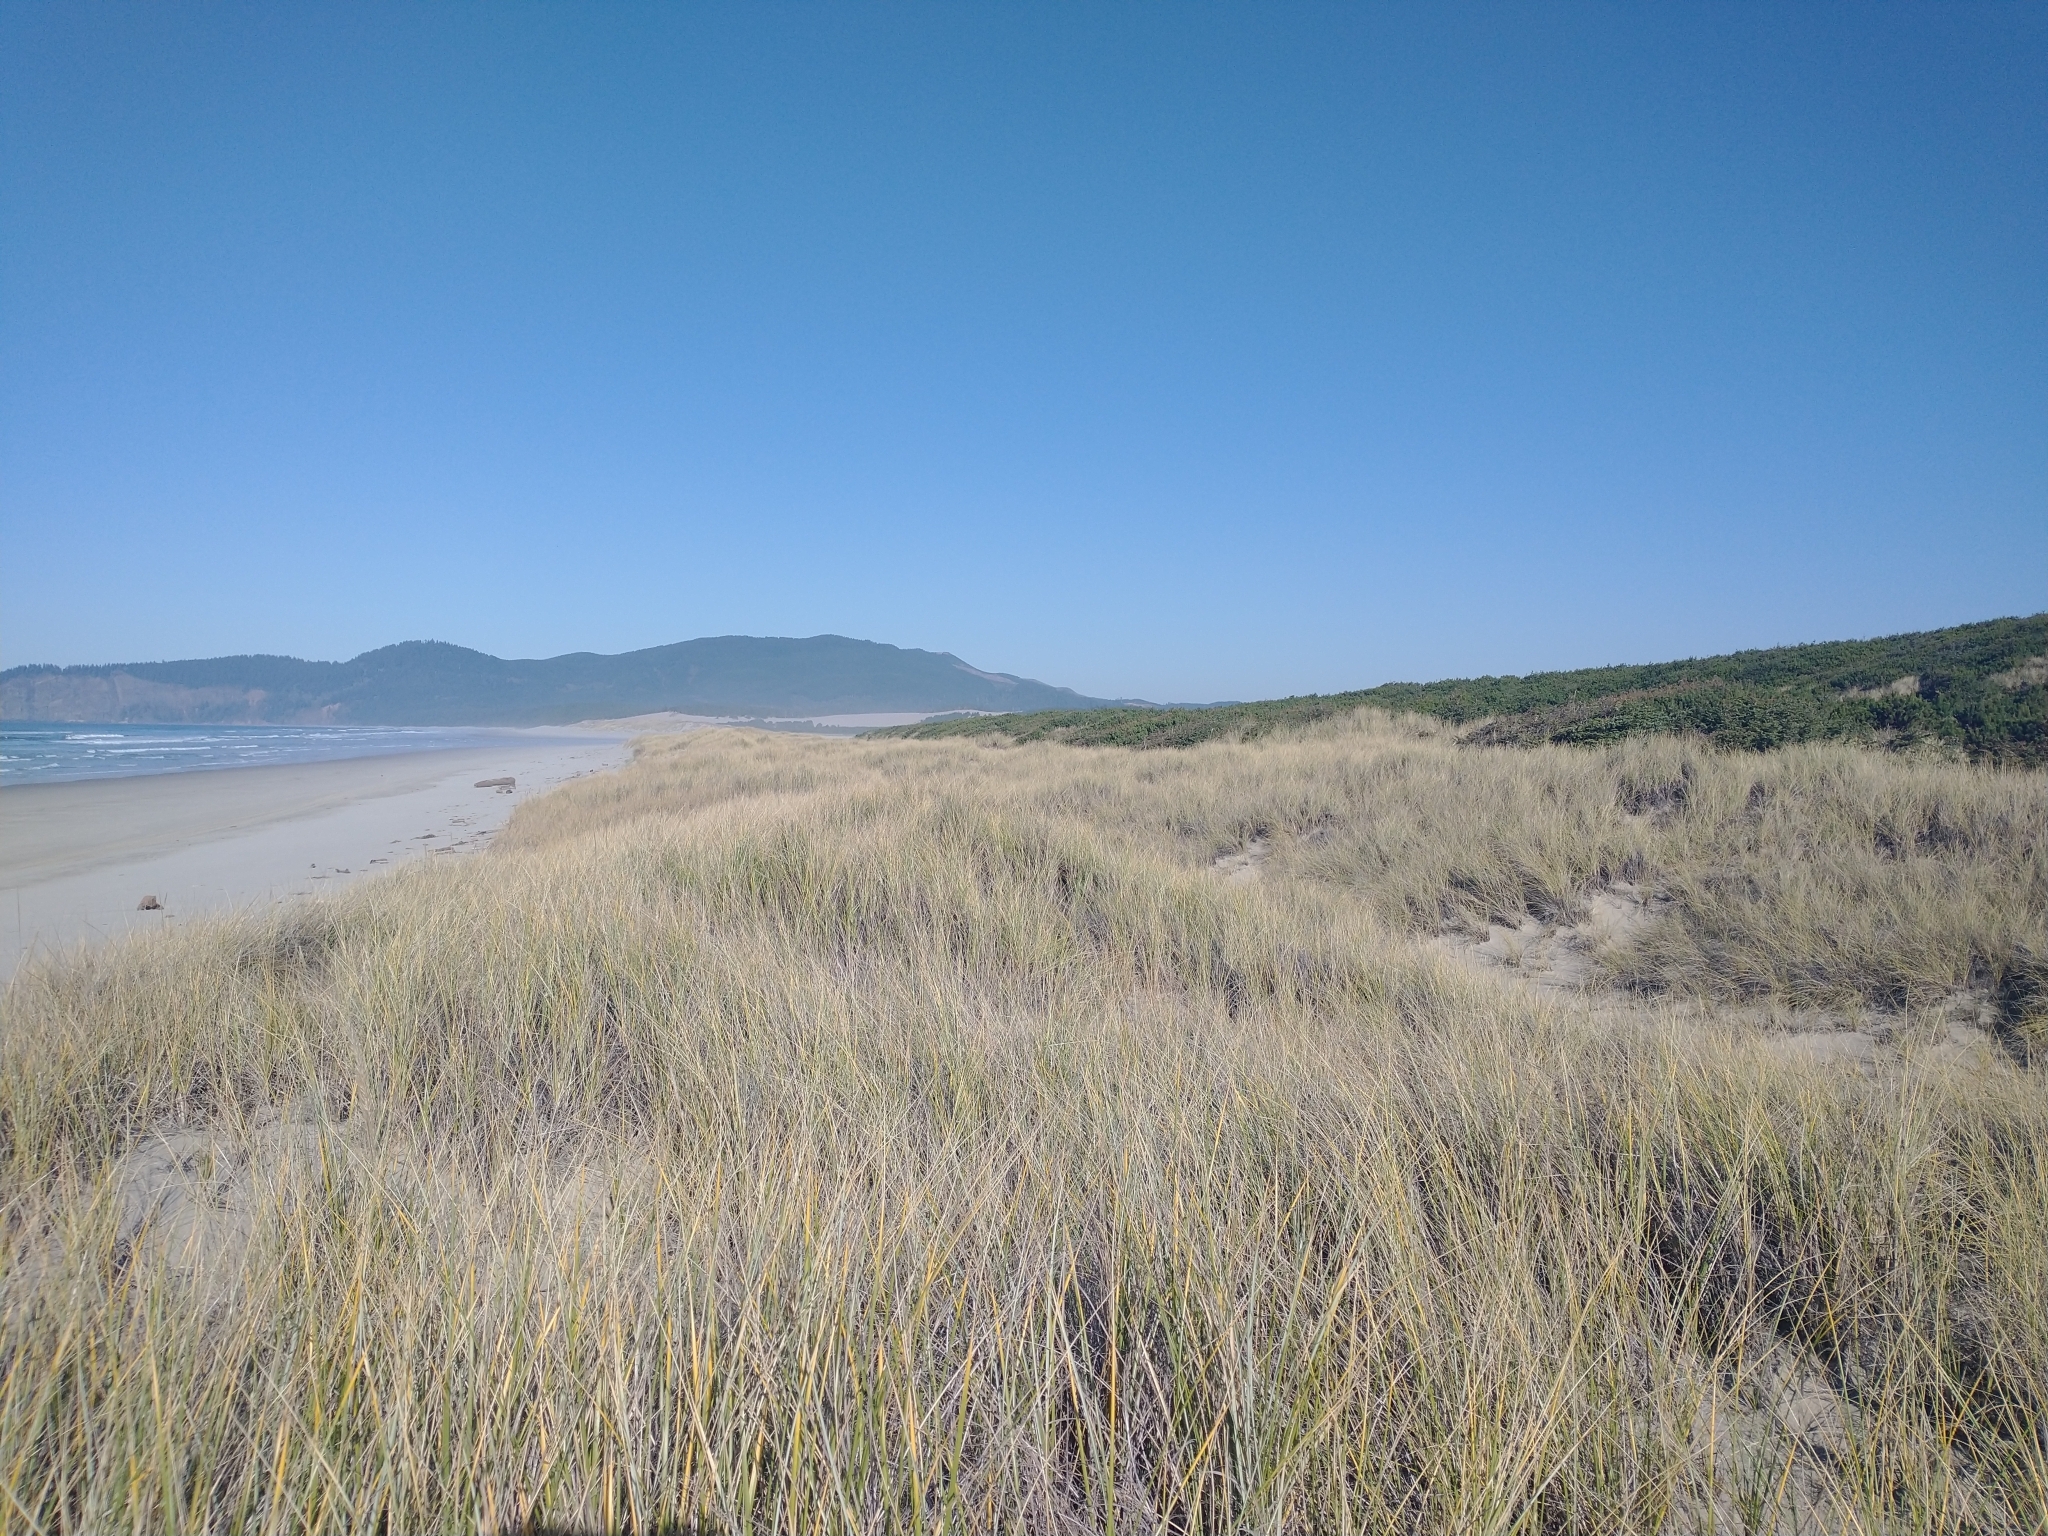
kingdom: Plantae
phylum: Tracheophyta
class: Pinopsida
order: Pinales
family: Pinaceae
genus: Picea
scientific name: Picea sitchensis
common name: Sitka spruce
